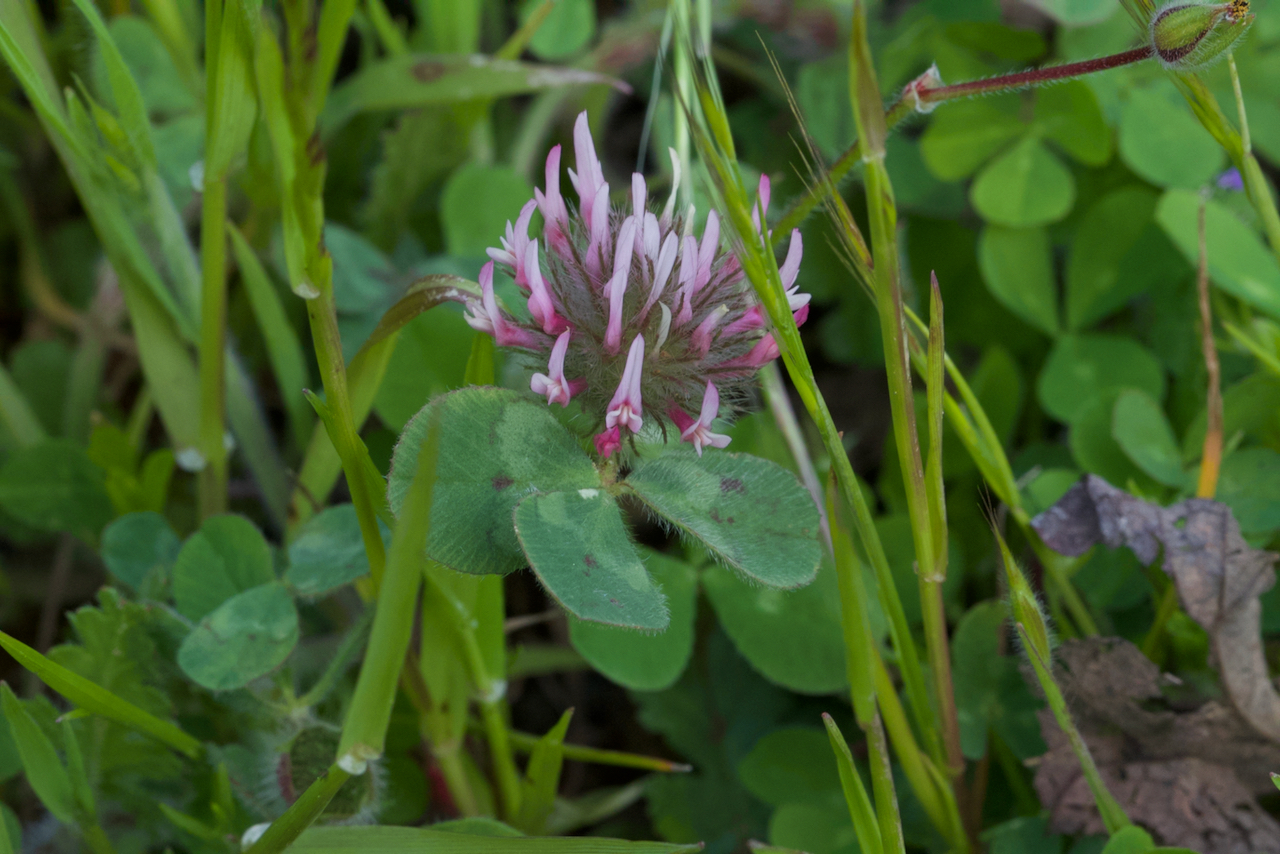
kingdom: Plantae
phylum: Tracheophyta
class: Magnoliopsida
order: Fabales
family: Fabaceae
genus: Trifolium
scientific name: Trifolium hirtum
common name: Rose clover
